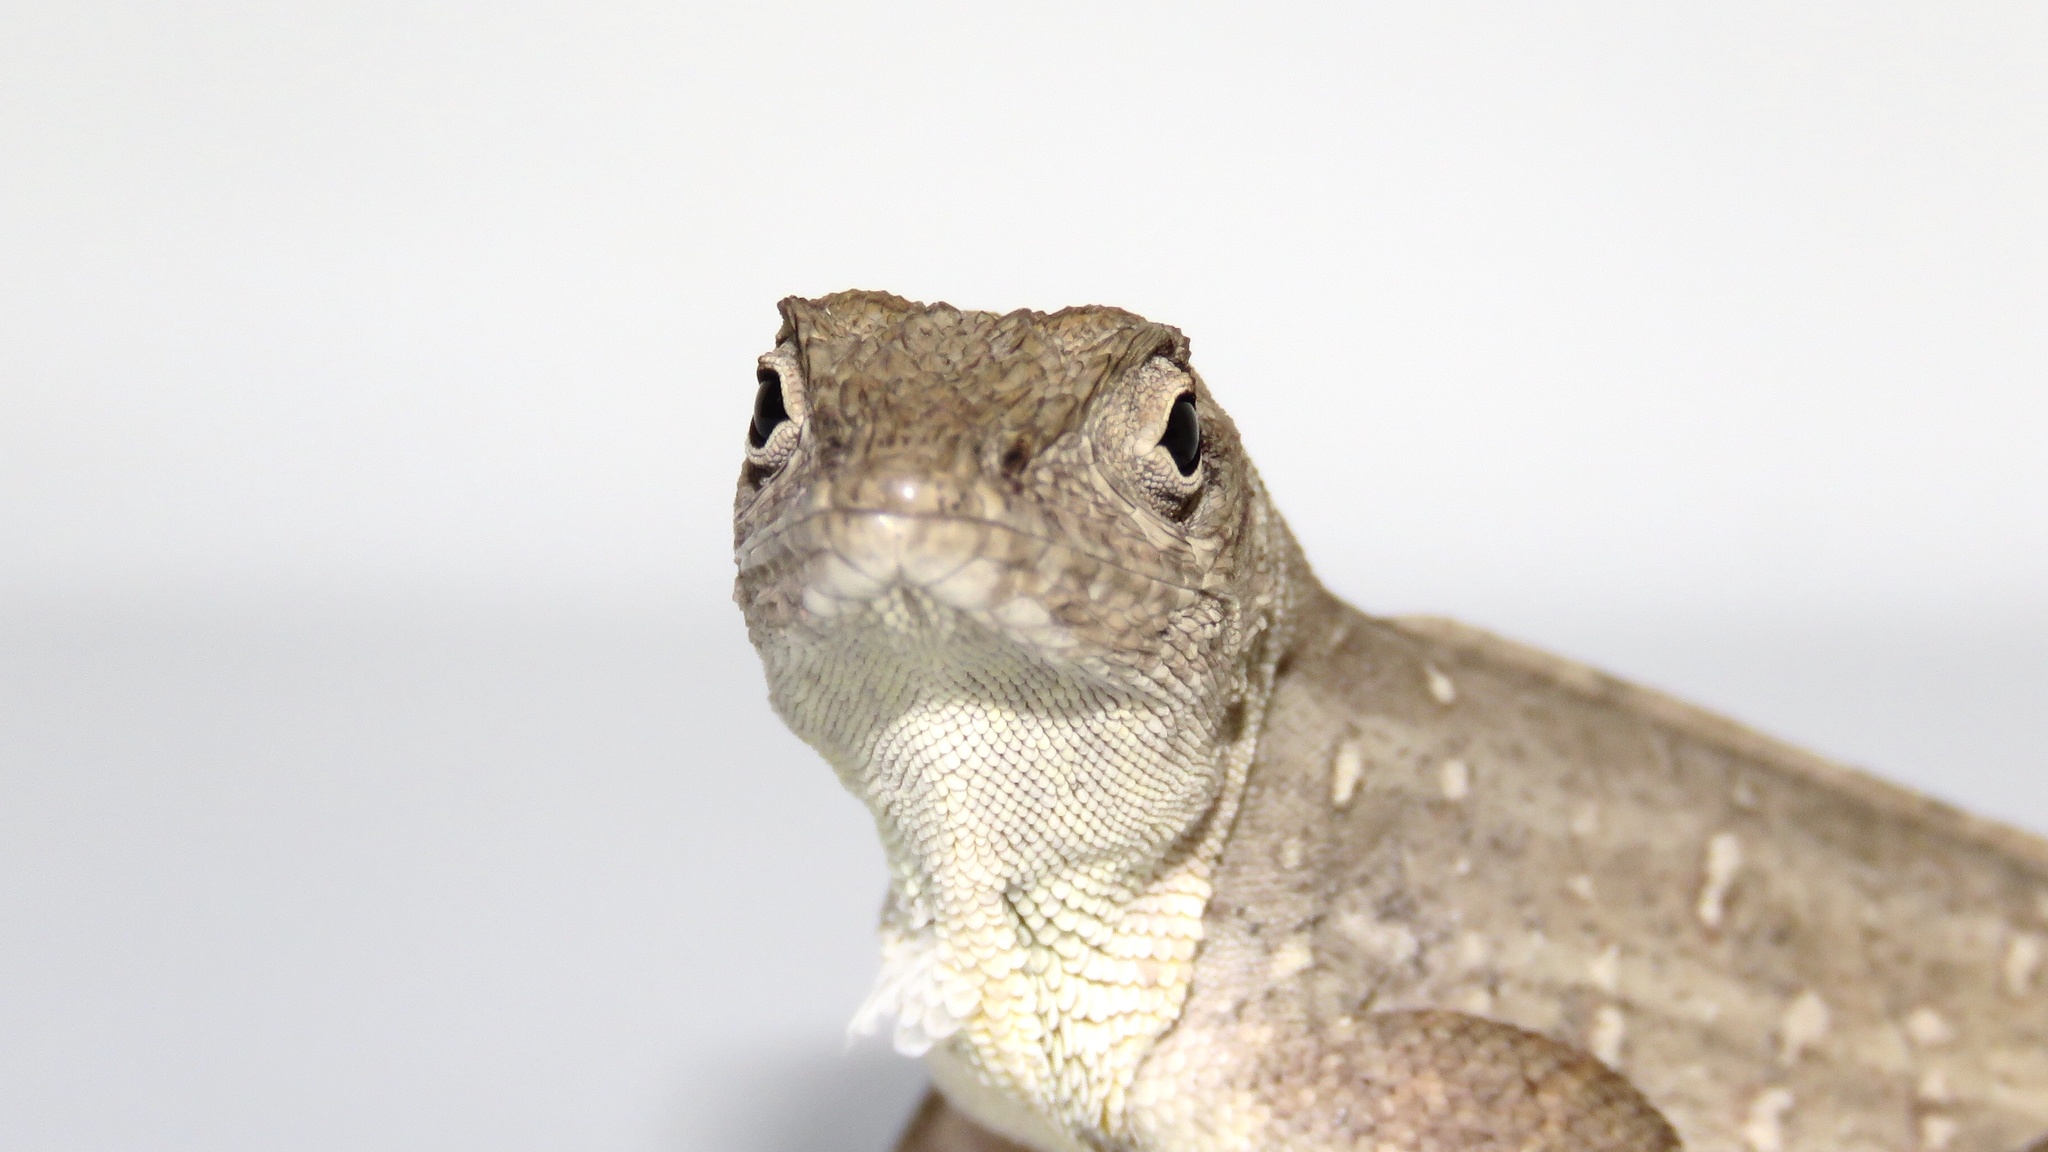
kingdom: Animalia
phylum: Chordata
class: Squamata
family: Dactyloidae
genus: Anolis
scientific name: Anolis sagrei
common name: Brown anole
